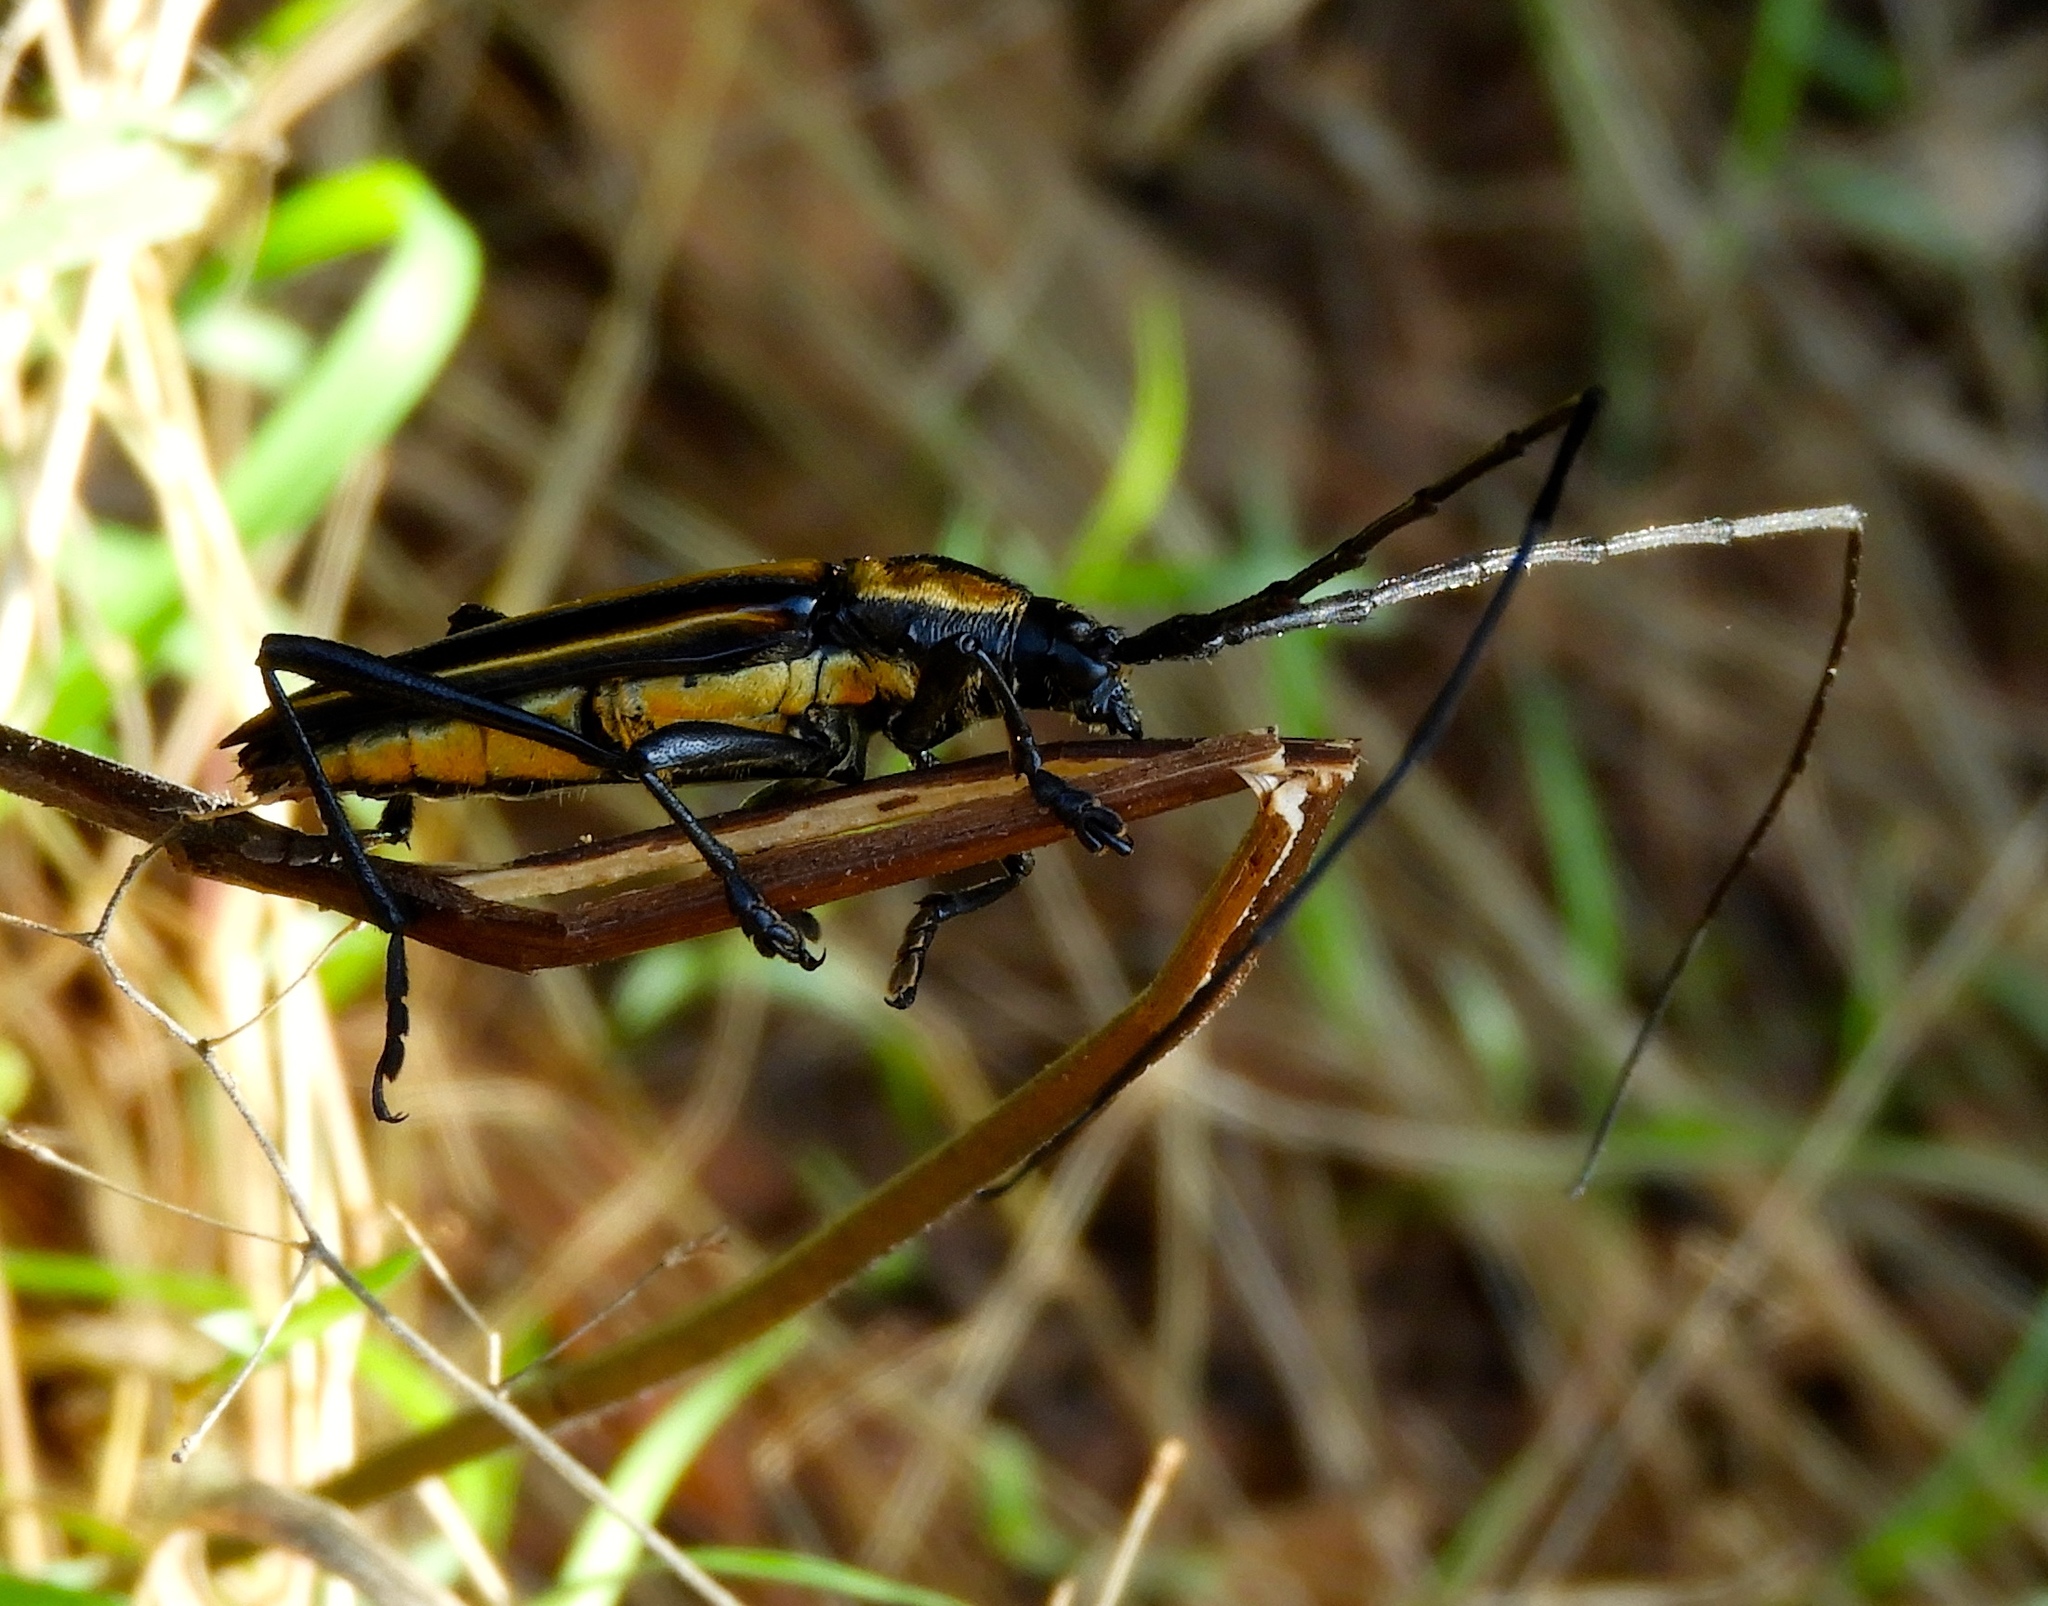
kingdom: Animalia
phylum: Arthropoda
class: Insecta
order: Coleoptera
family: Cerambycidae
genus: Sphaenothecus
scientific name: Sphaenothecus argenteus
